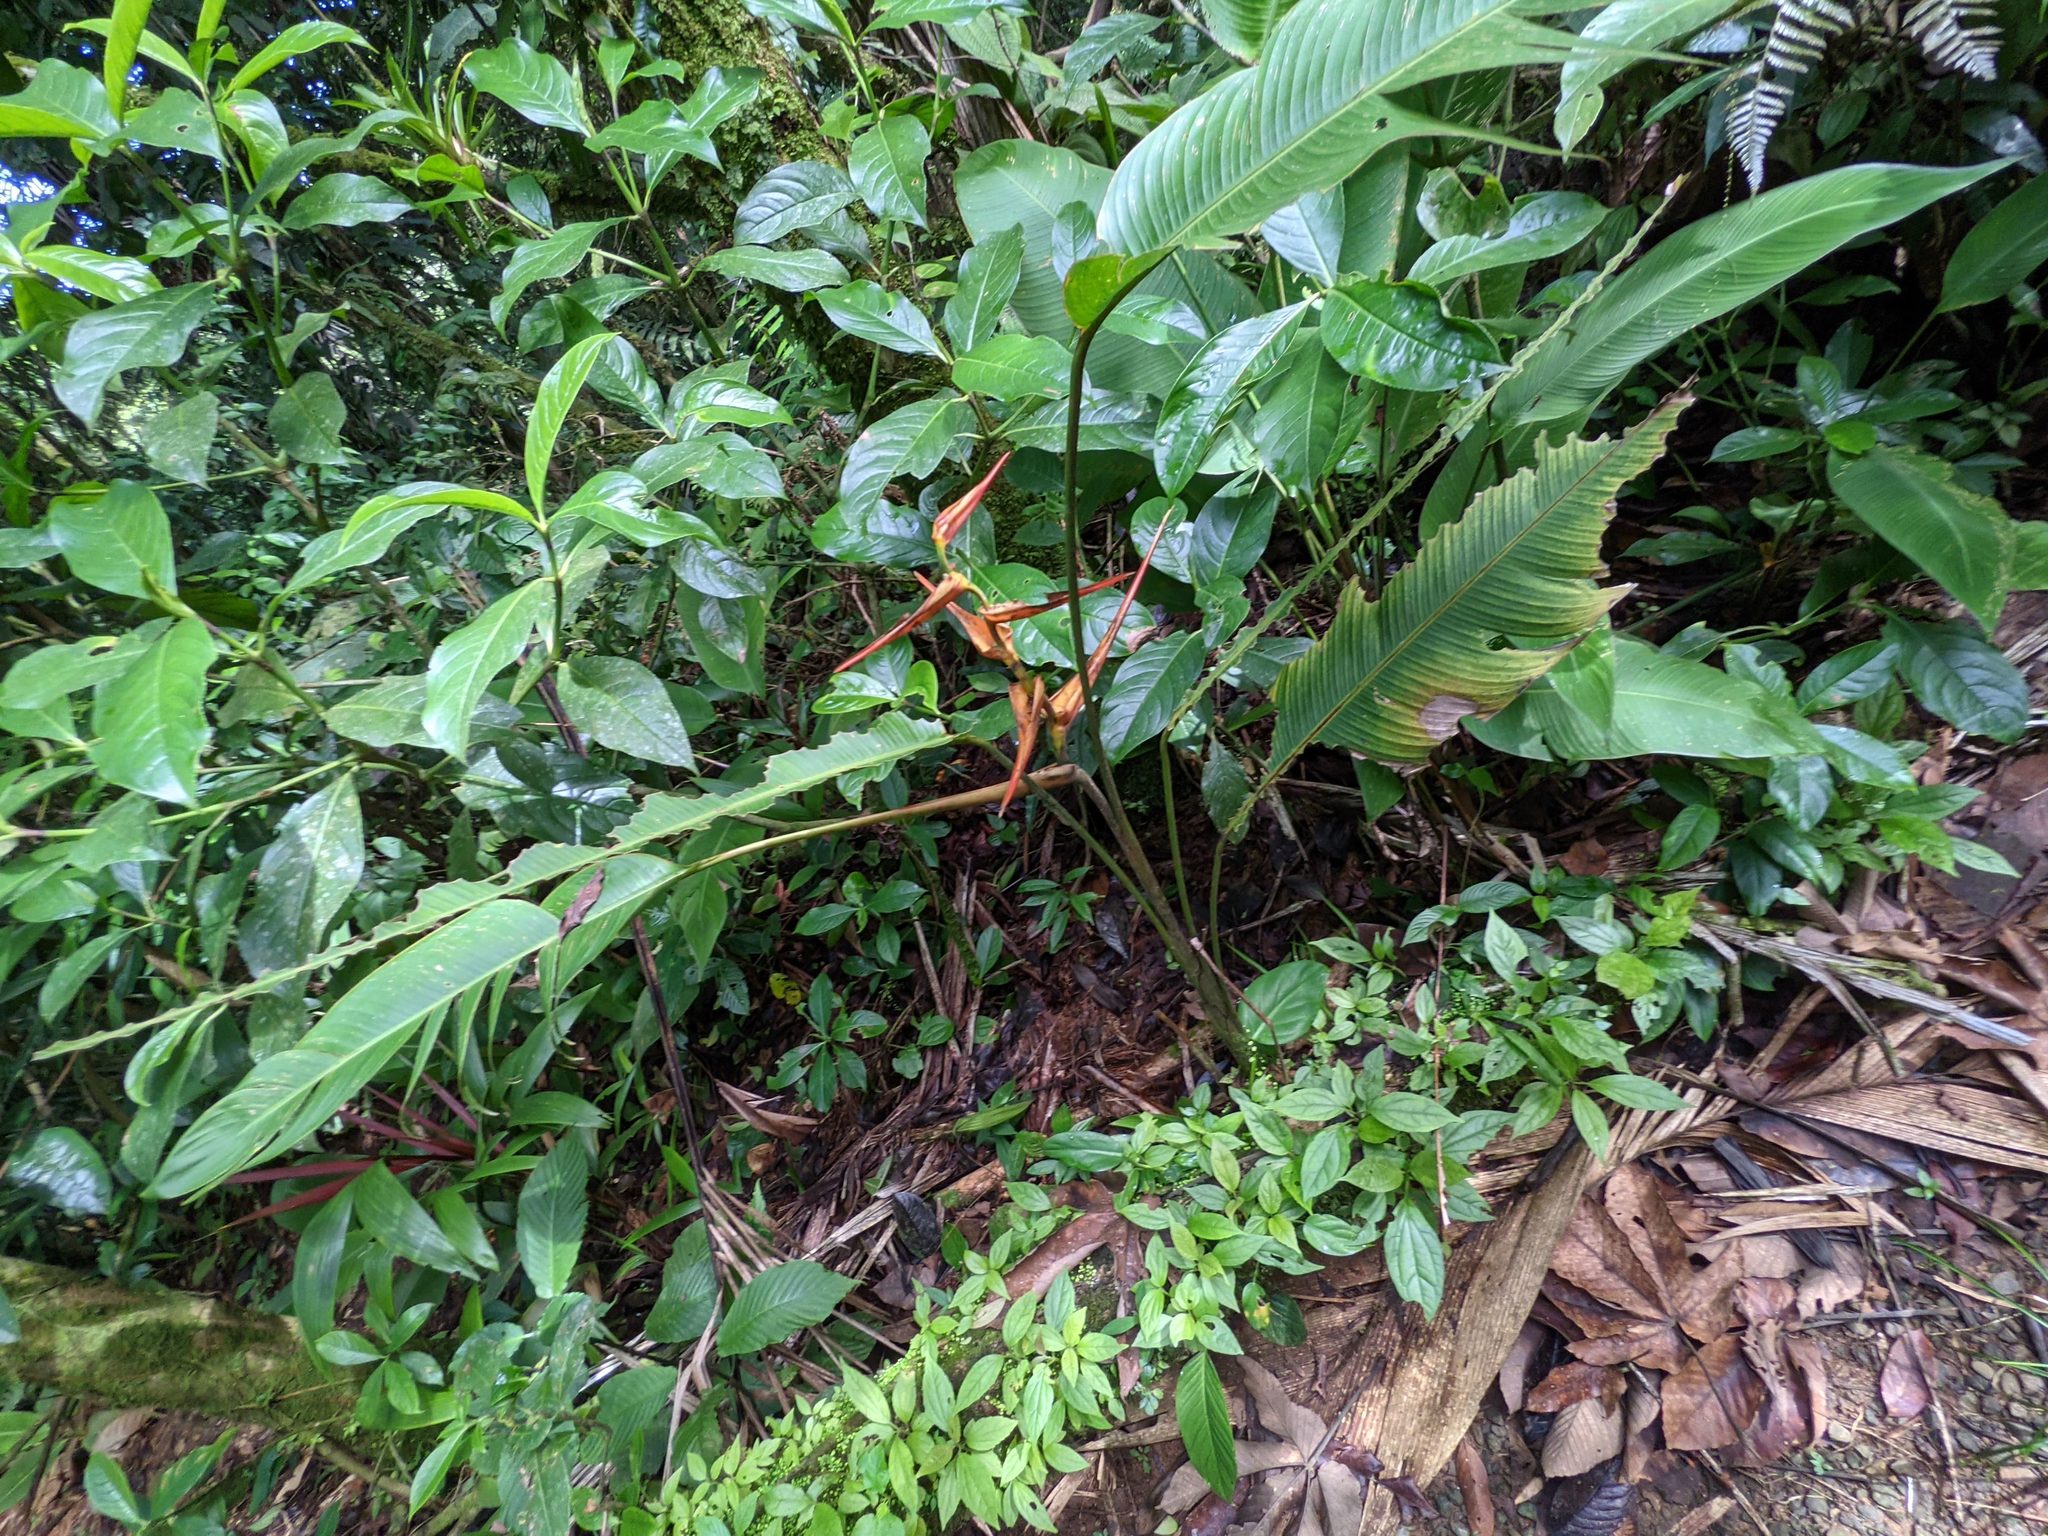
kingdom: Plantae
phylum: Tracheophyta
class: Liliopsida
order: Zingiberales
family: Heliconiaceae
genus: Heliconia
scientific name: Heliconia latispatha
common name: Expanded lobsterclaw
